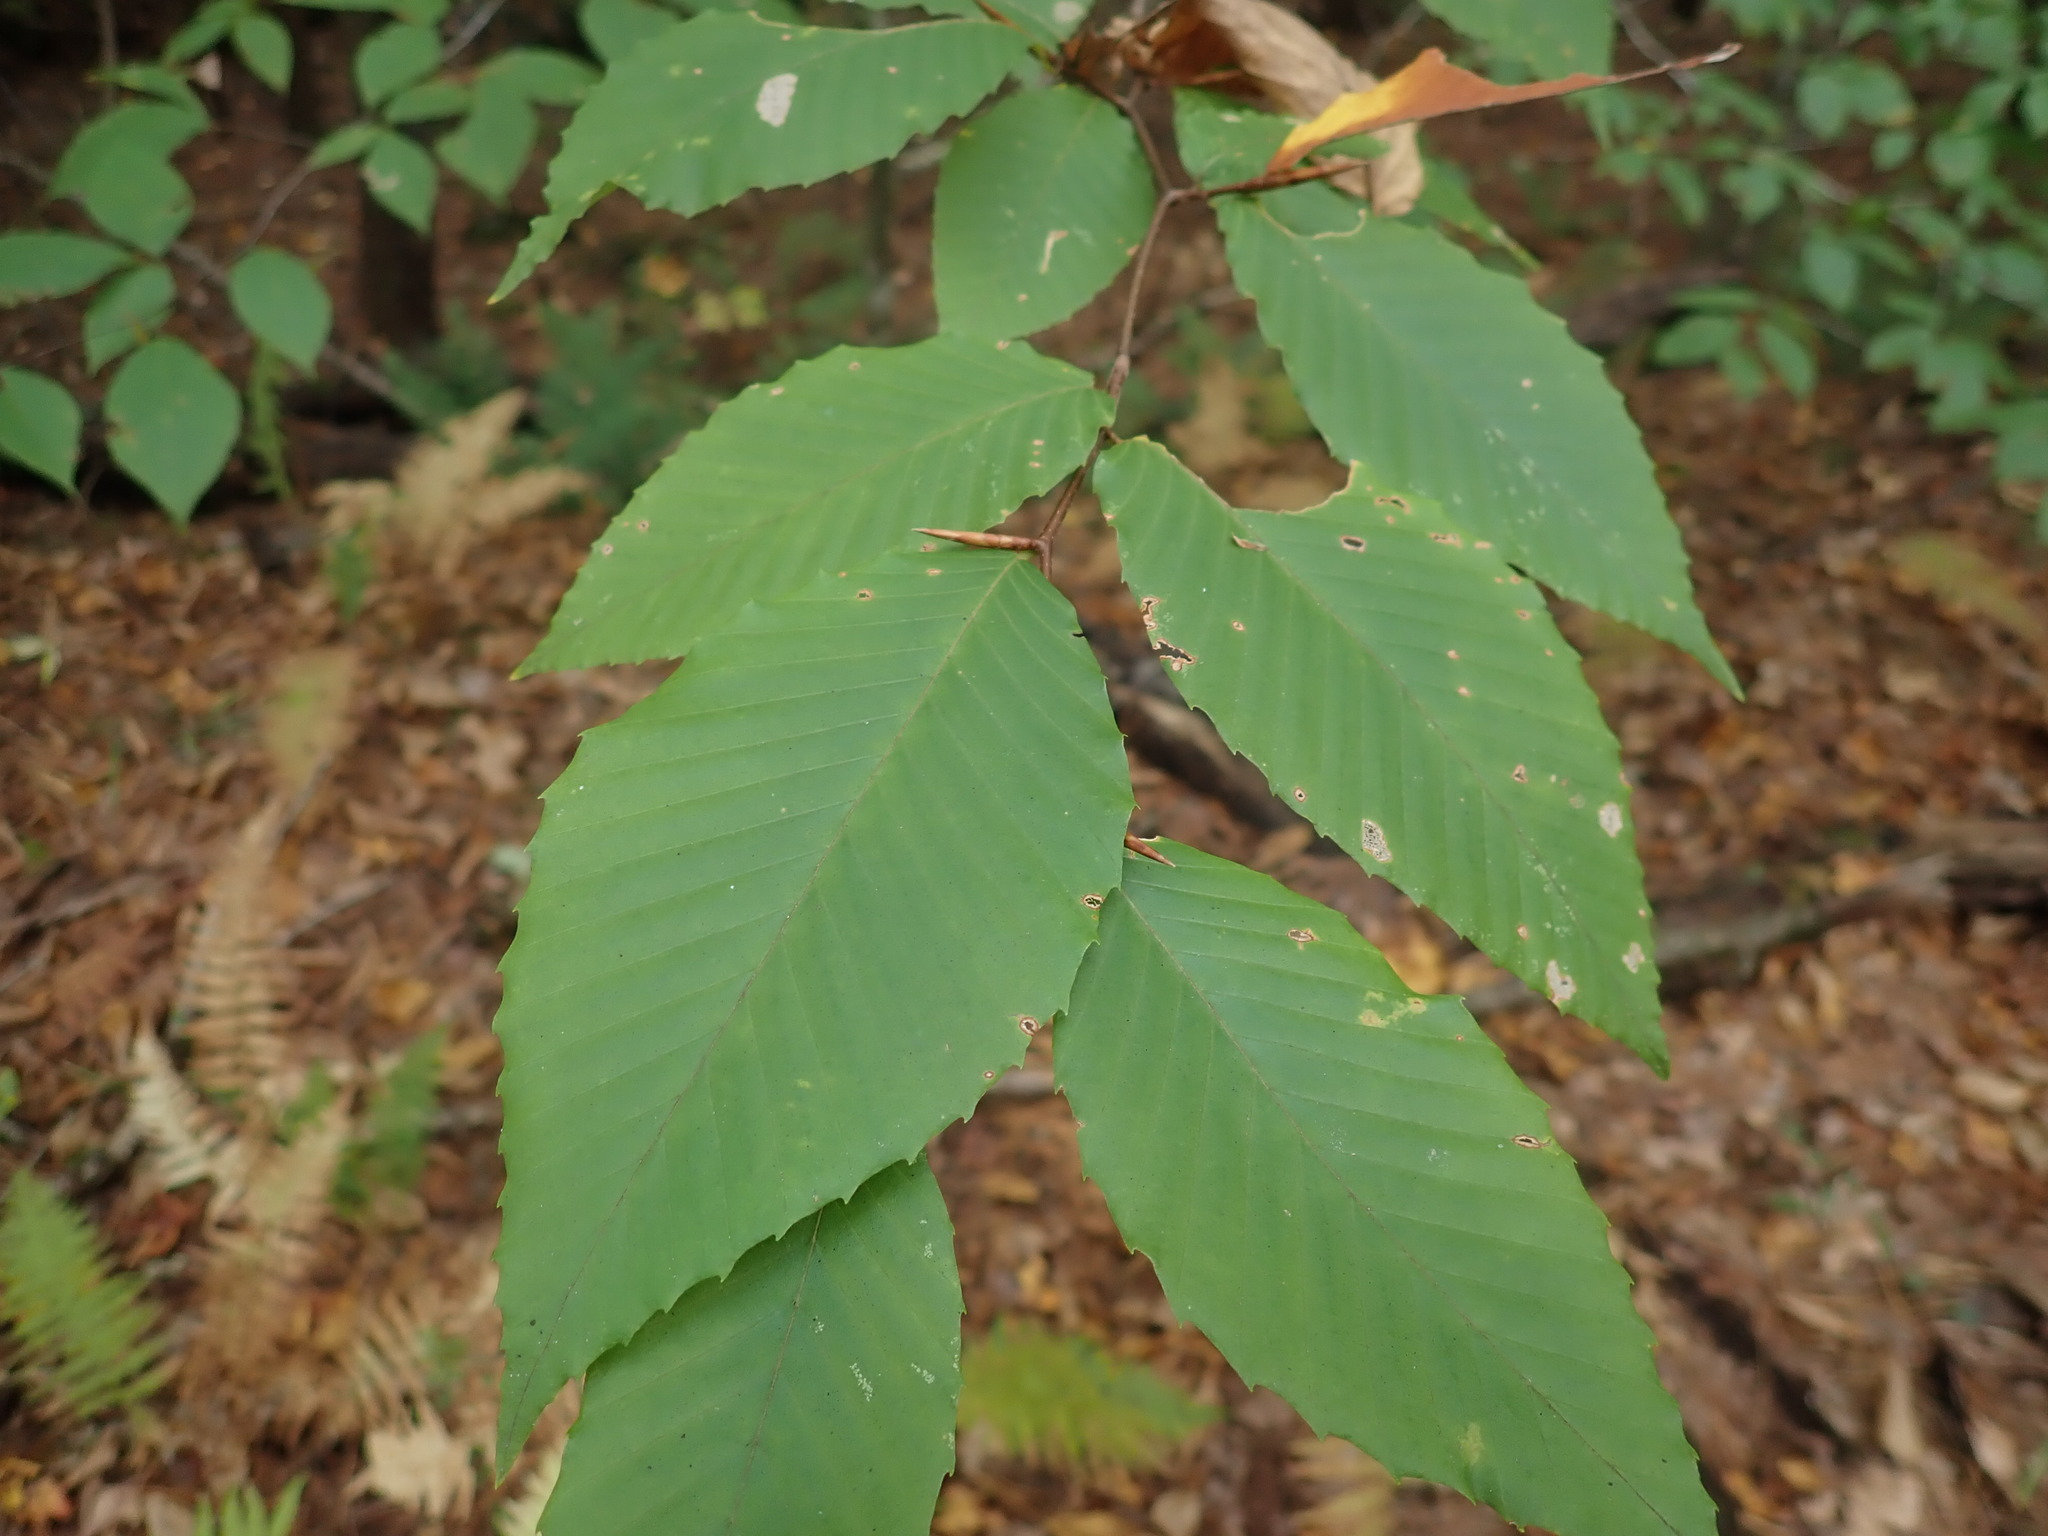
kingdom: Plantae
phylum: Tracheophyta
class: Magnoliopsida
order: Fagales
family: Fagaceae
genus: Fagus
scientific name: Fagus grandifolia
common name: American beech
